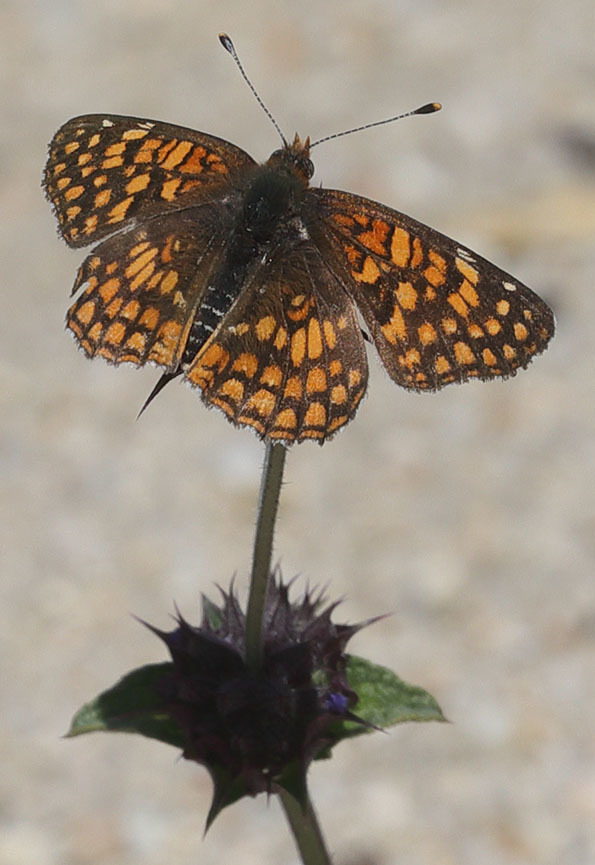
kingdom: Animalia
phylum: Arthropoda
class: Insecta
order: Lepidoptera
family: Nymphalidae
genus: Chlosyne
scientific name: Chlosyne gabbii
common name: Gabb's checkerspot
